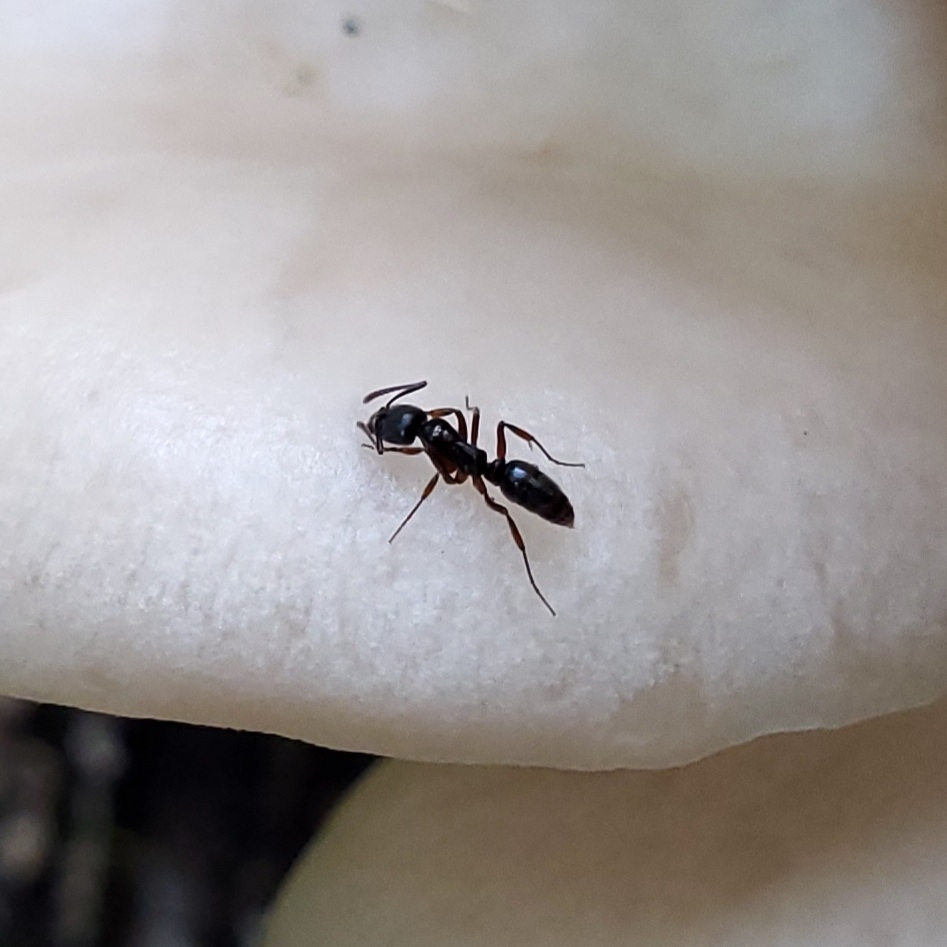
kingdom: Animalia
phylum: Arthropoda
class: Insecta
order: Hymenoptera
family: Formicidae
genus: Pachycondyla
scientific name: Pachycondyla chinensis
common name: Asian needle ant
